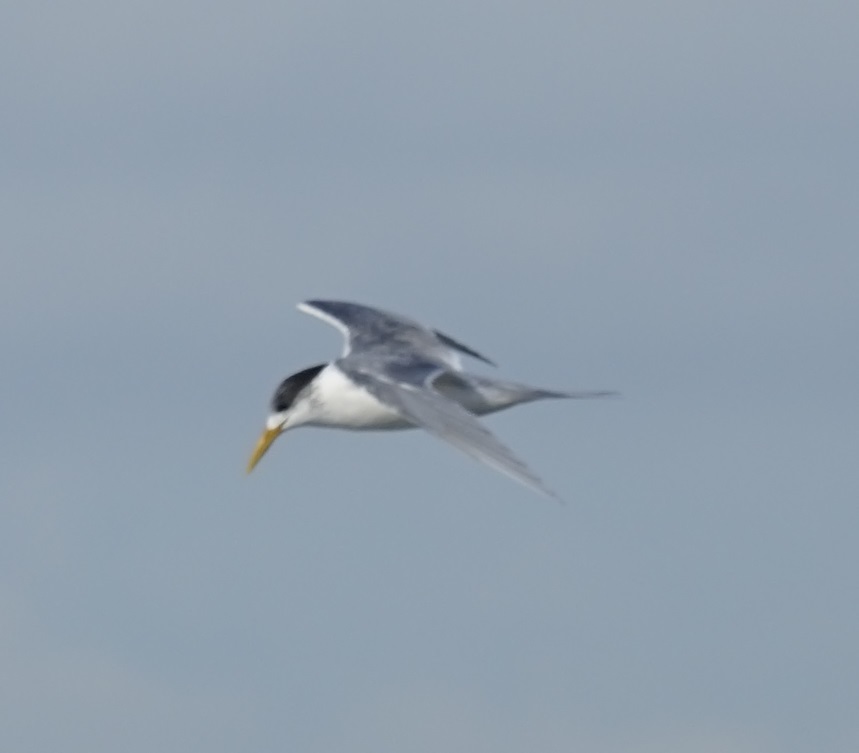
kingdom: Animalia
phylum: Chordata
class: Aves
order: Charadriiformes
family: Laridae
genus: Thalasseus
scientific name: Thalasseus bergii
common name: Greater crested tern
